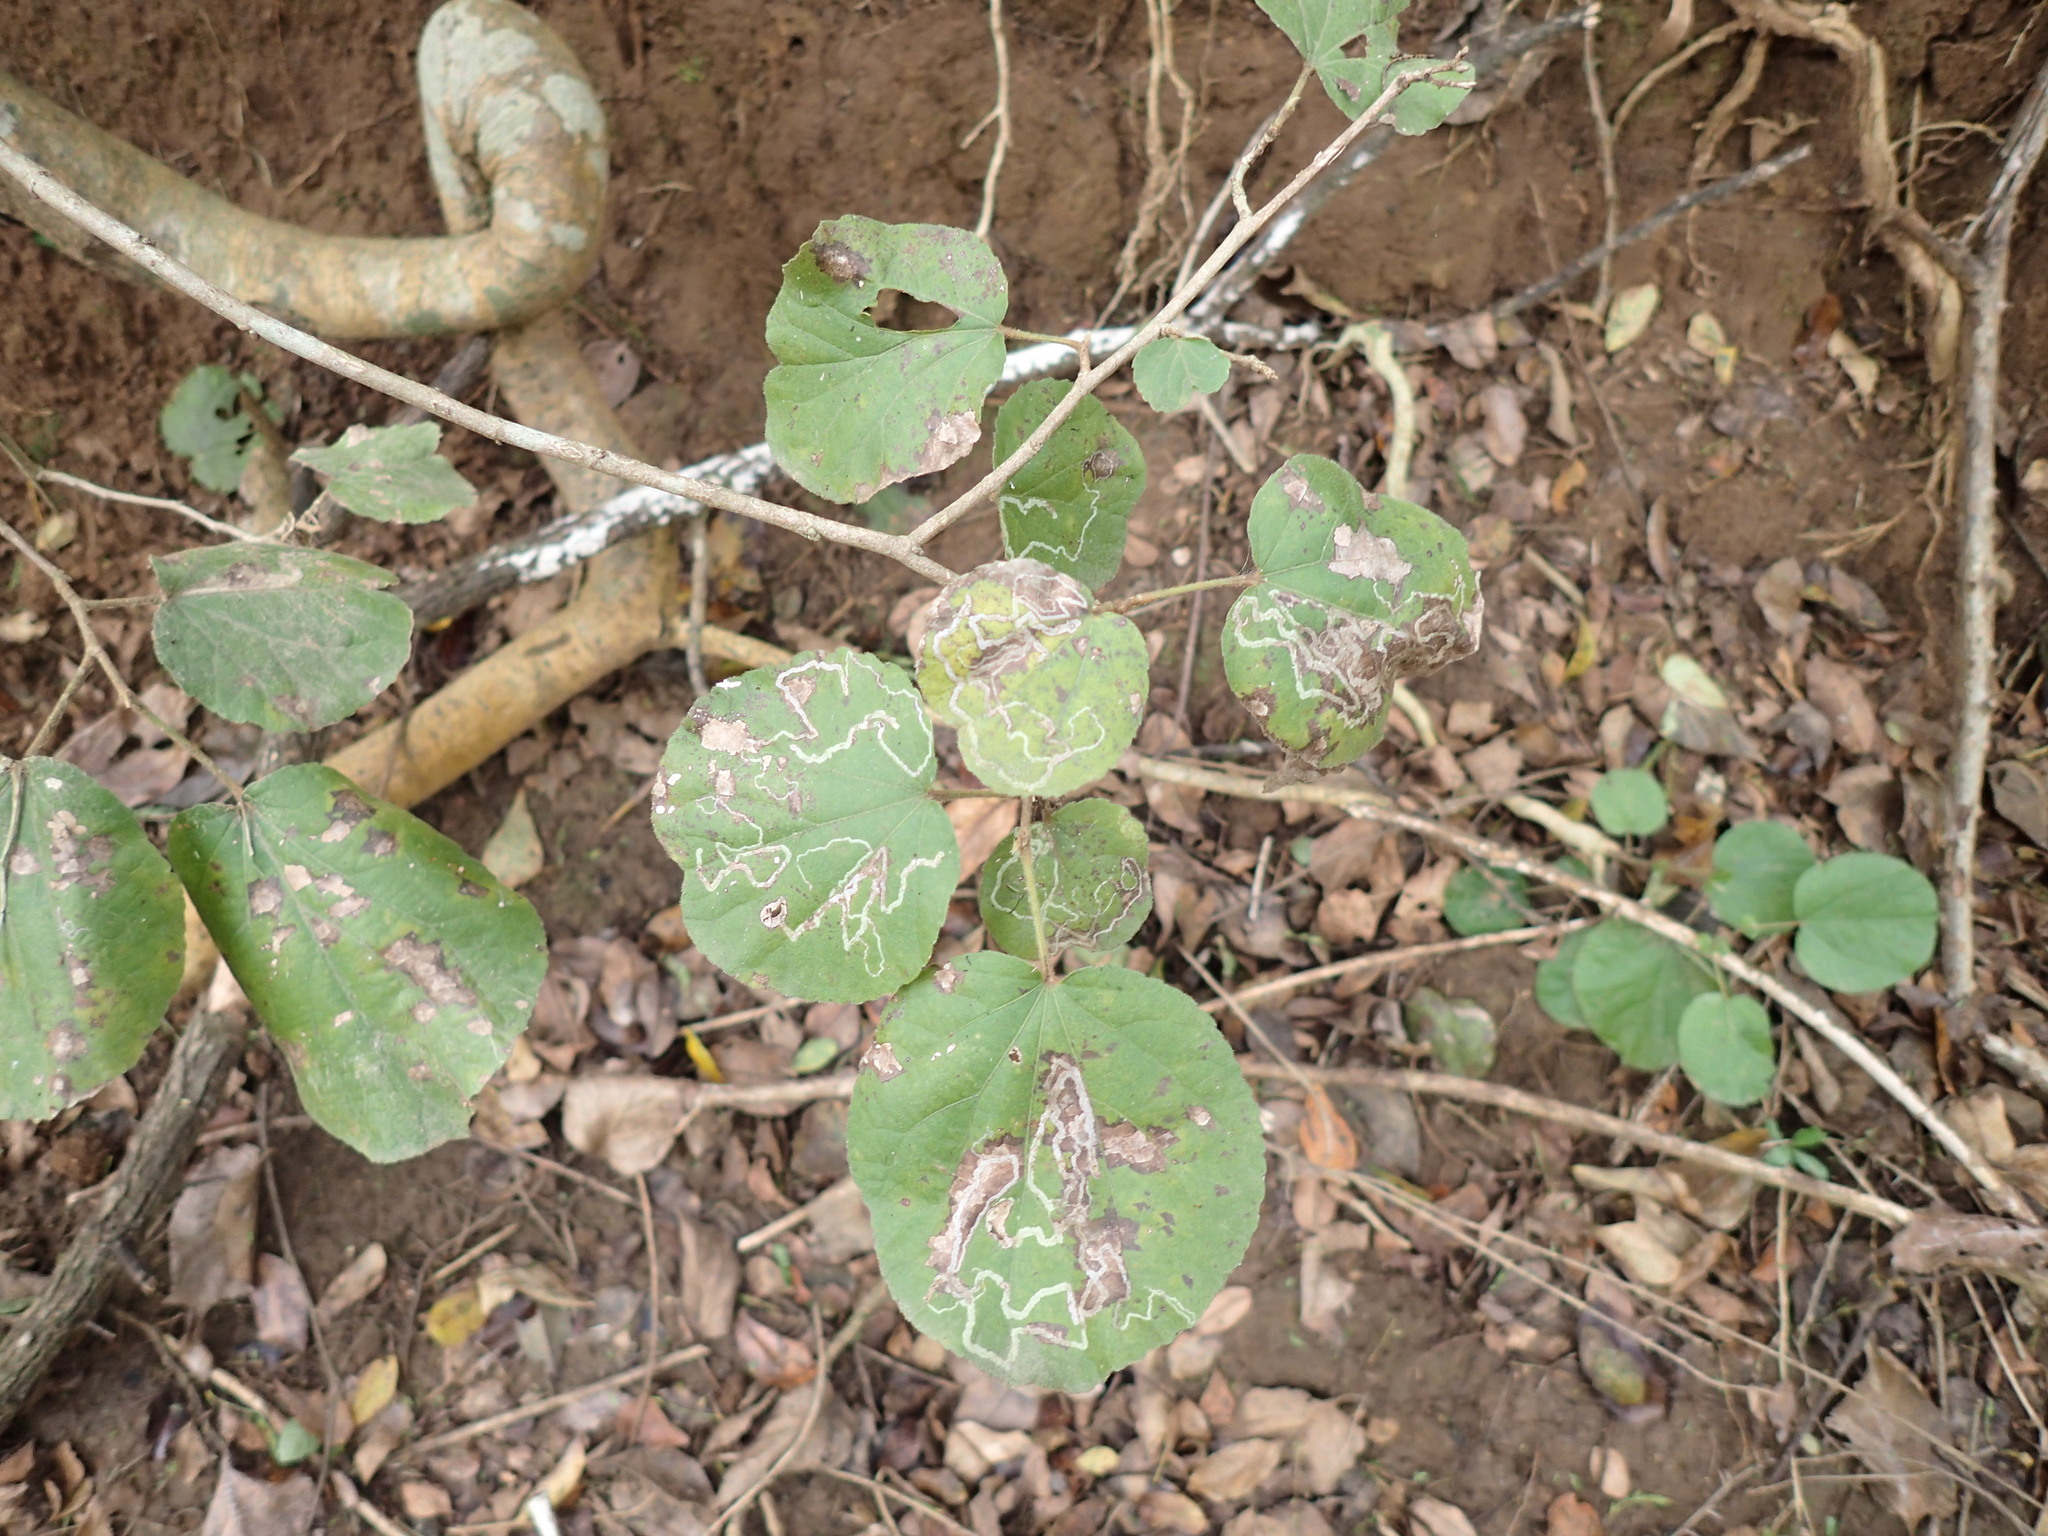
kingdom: Plantae
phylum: Tracheophyta
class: Magnoliopsida
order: Malpighiales
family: Salicaceae
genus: Trimeria
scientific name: Trimeria grandifolia
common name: Wild mulberry
